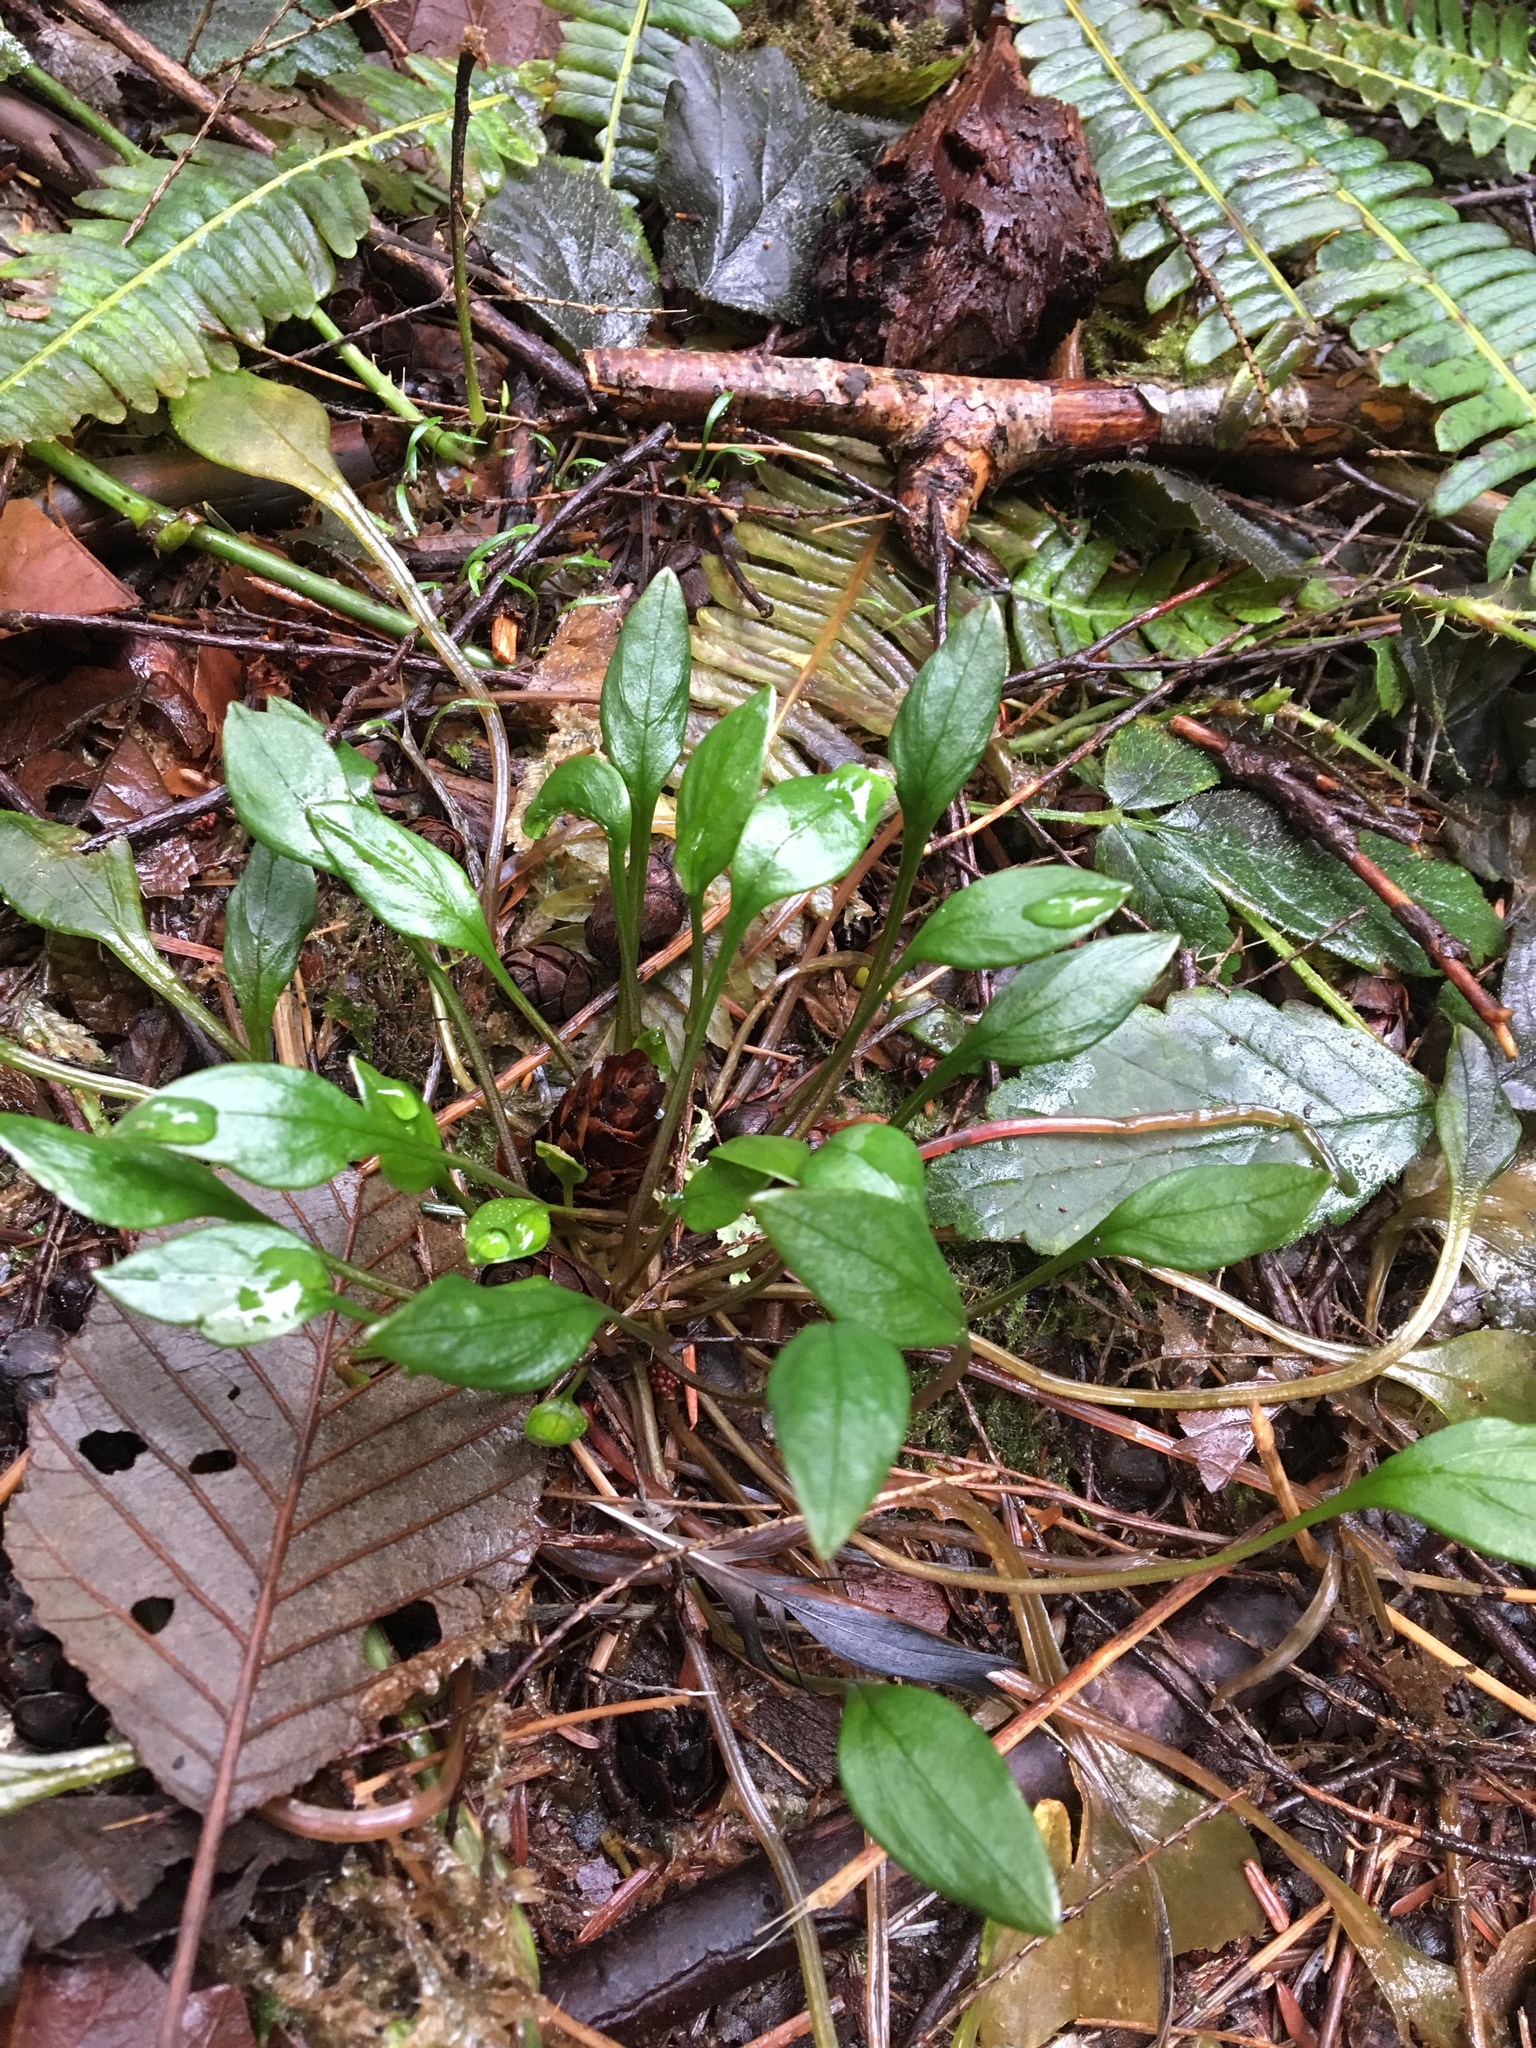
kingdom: Plantae
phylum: Tracheophyta
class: Magnoliopsida
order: Caryophyllales
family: Montiaceae
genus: Claytonia
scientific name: Claytonia sibirica
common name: Pink purslane
